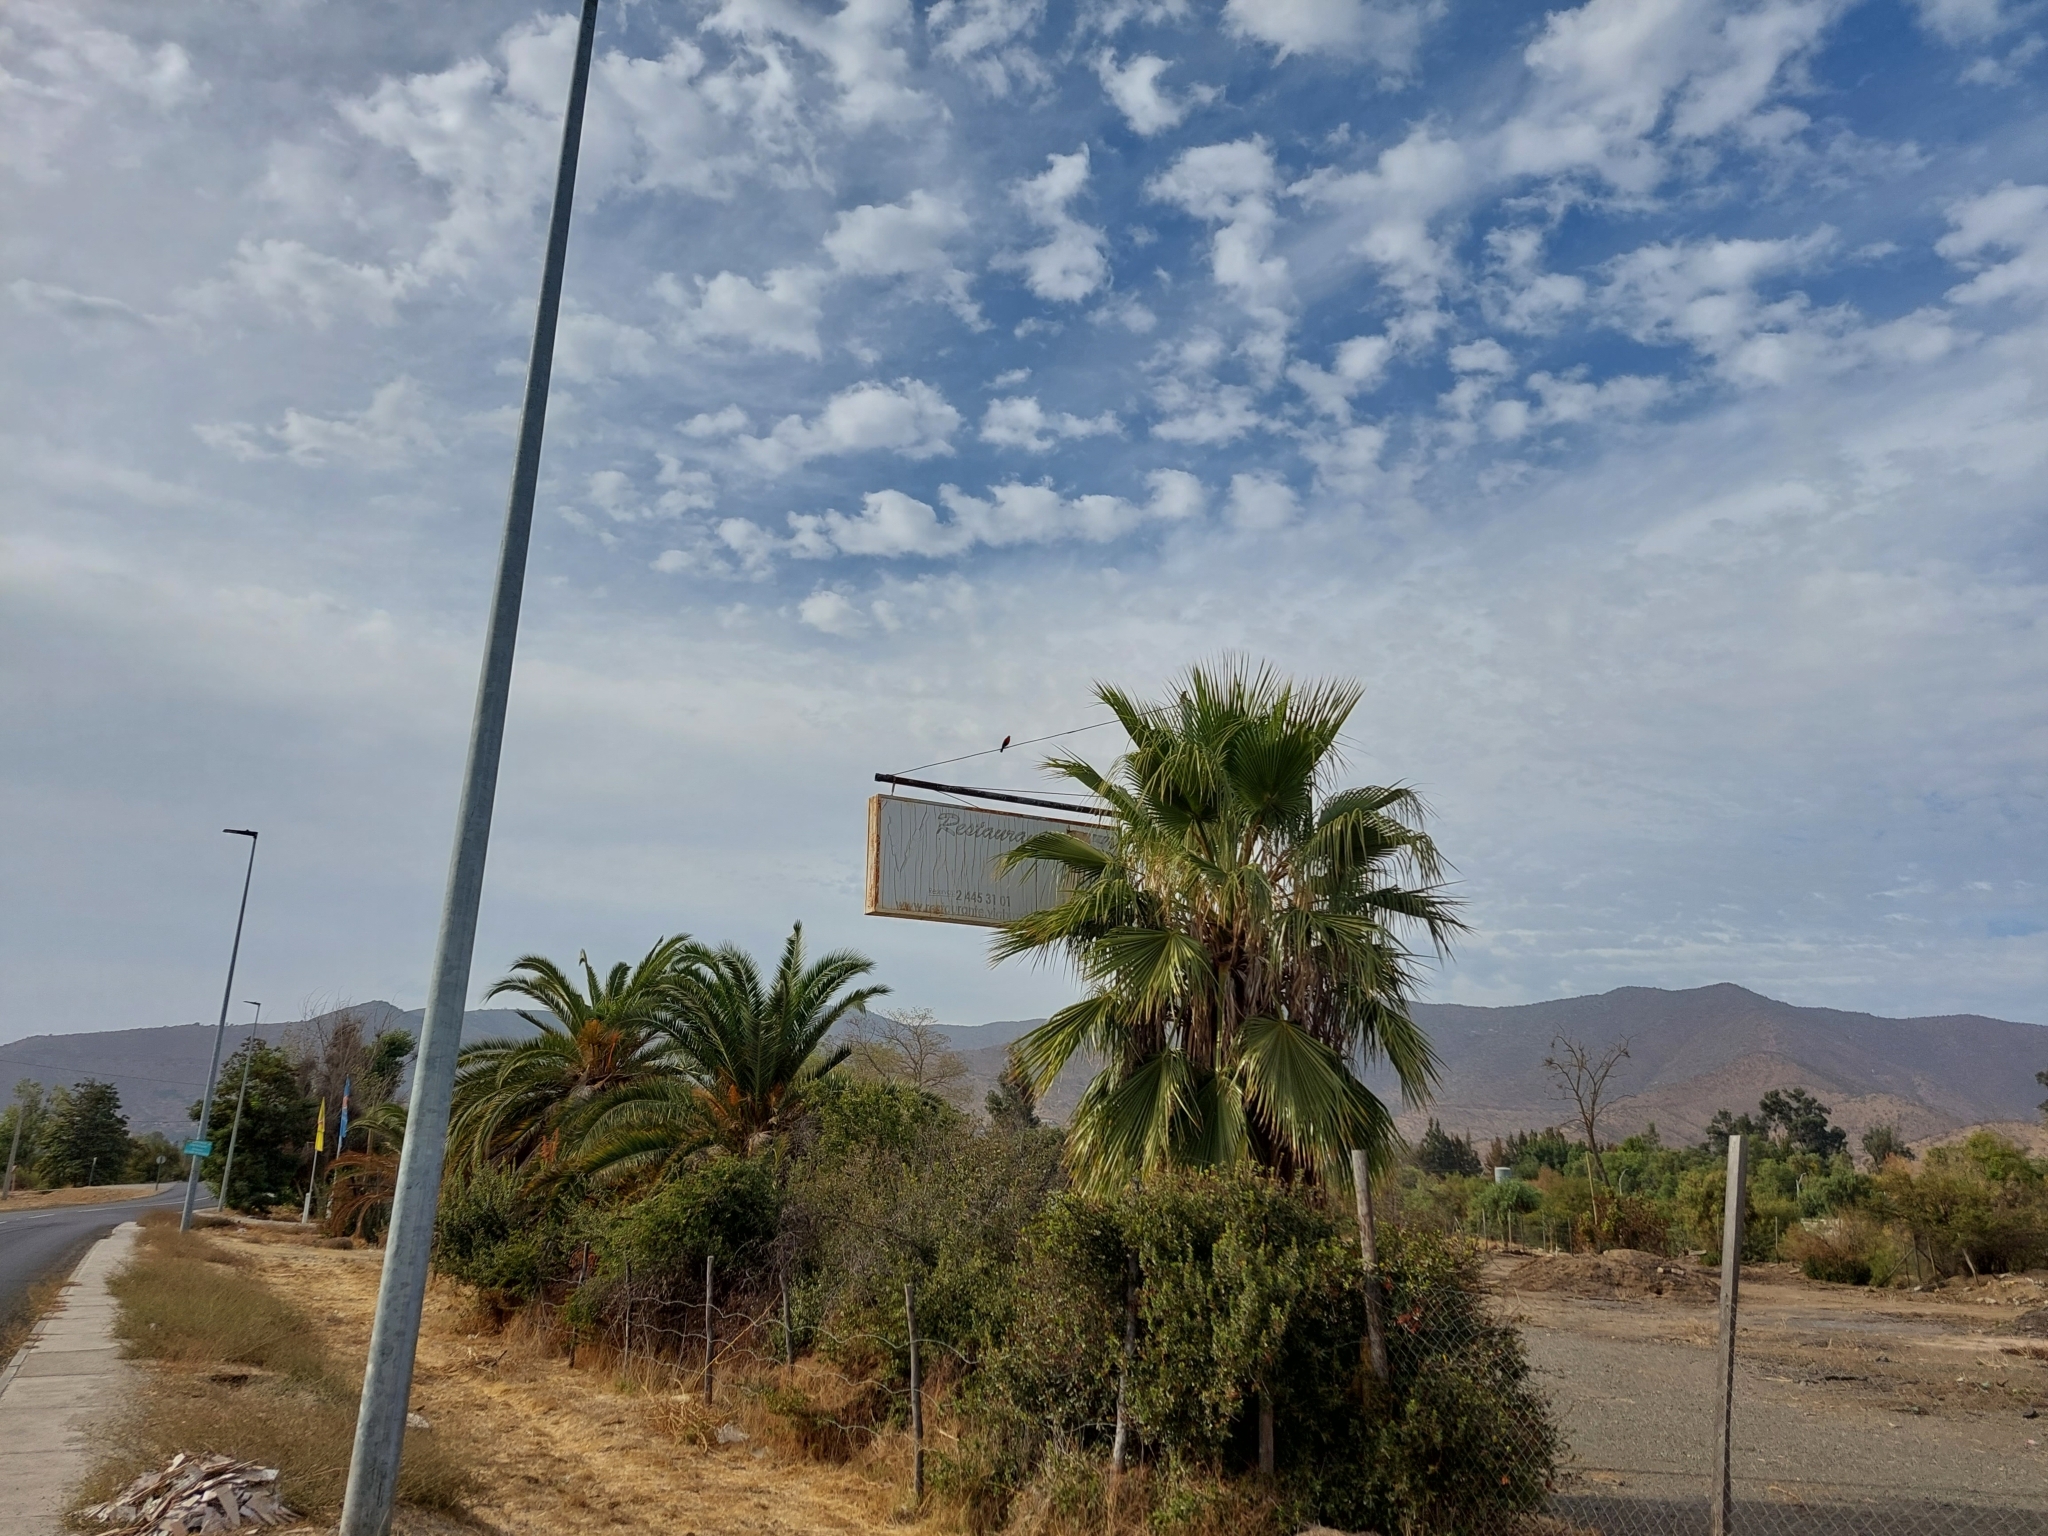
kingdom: Animalia
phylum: Chordata
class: Aves
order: Passeriformes
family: Icteridae
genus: Sturnella
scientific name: Sturnella loyca
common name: Long-tailed meadowlark
